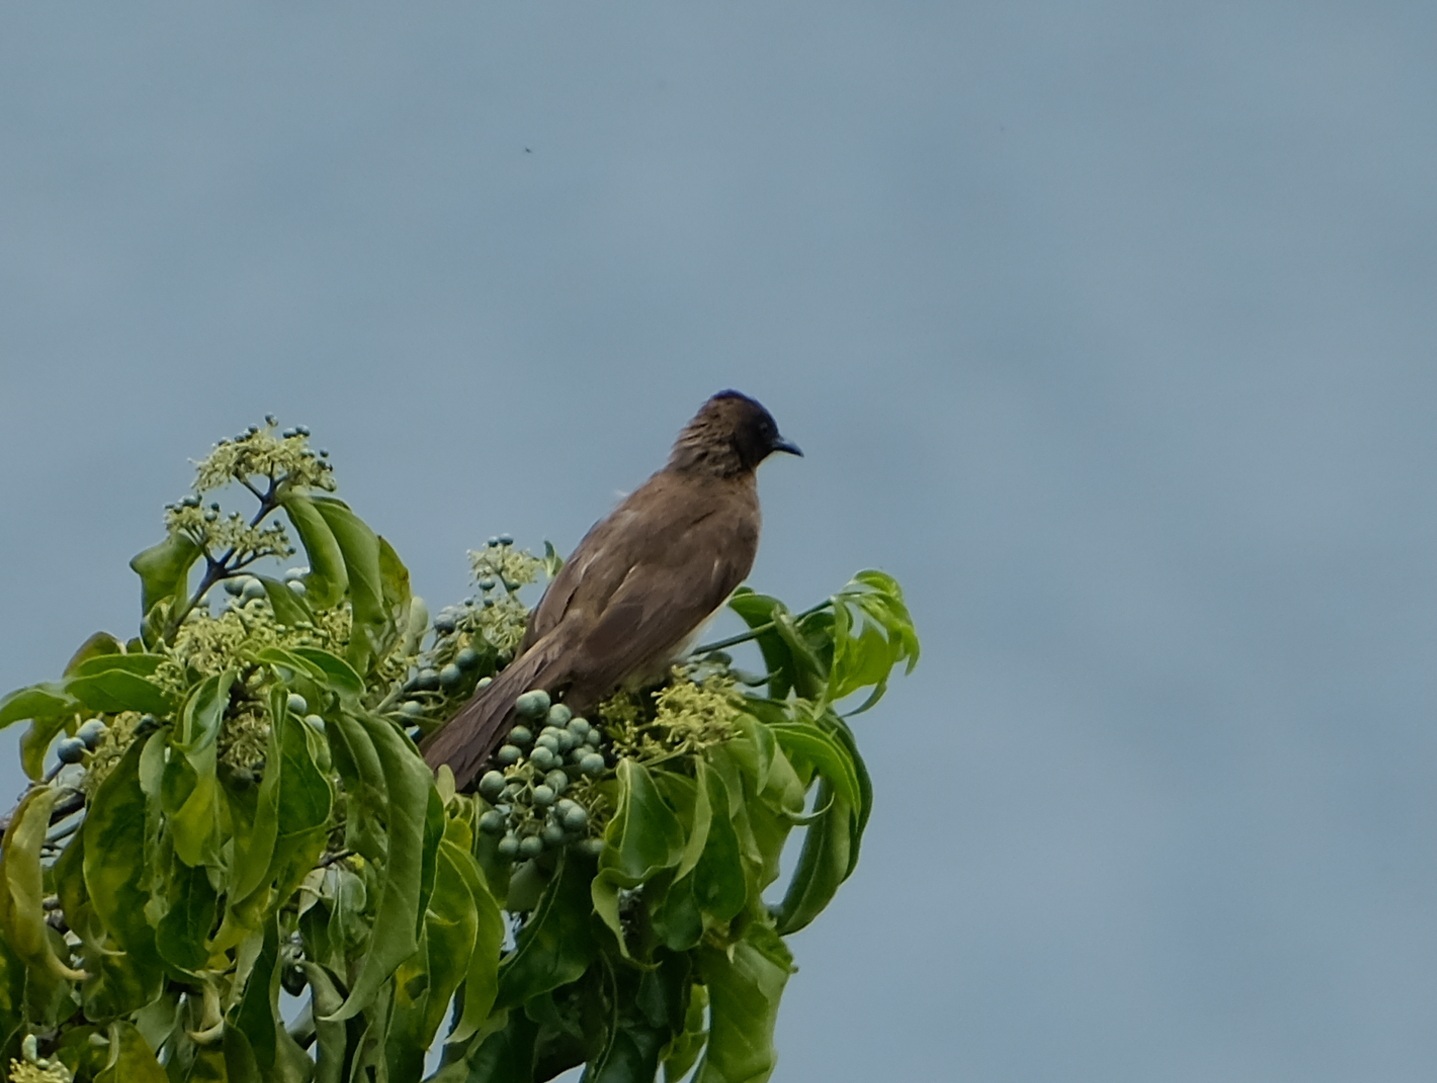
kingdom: Animalia
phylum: Chordata
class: Aves
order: Passeriformes
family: Pycnonotidae
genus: Pycnonotus
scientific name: Pycnonotus barbatus
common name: Common bulbul
